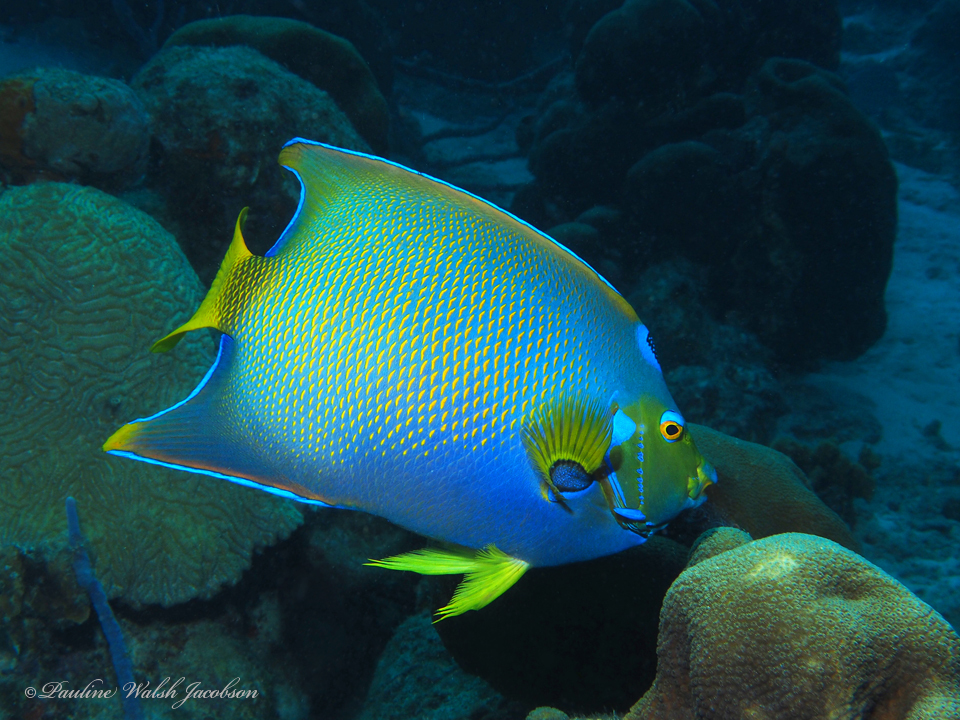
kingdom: Animalia
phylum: Chordata
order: Perciformes
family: Pomacanthidae
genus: Holacanthus
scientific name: Holacanthus ciliaris
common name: Queen angelfish
